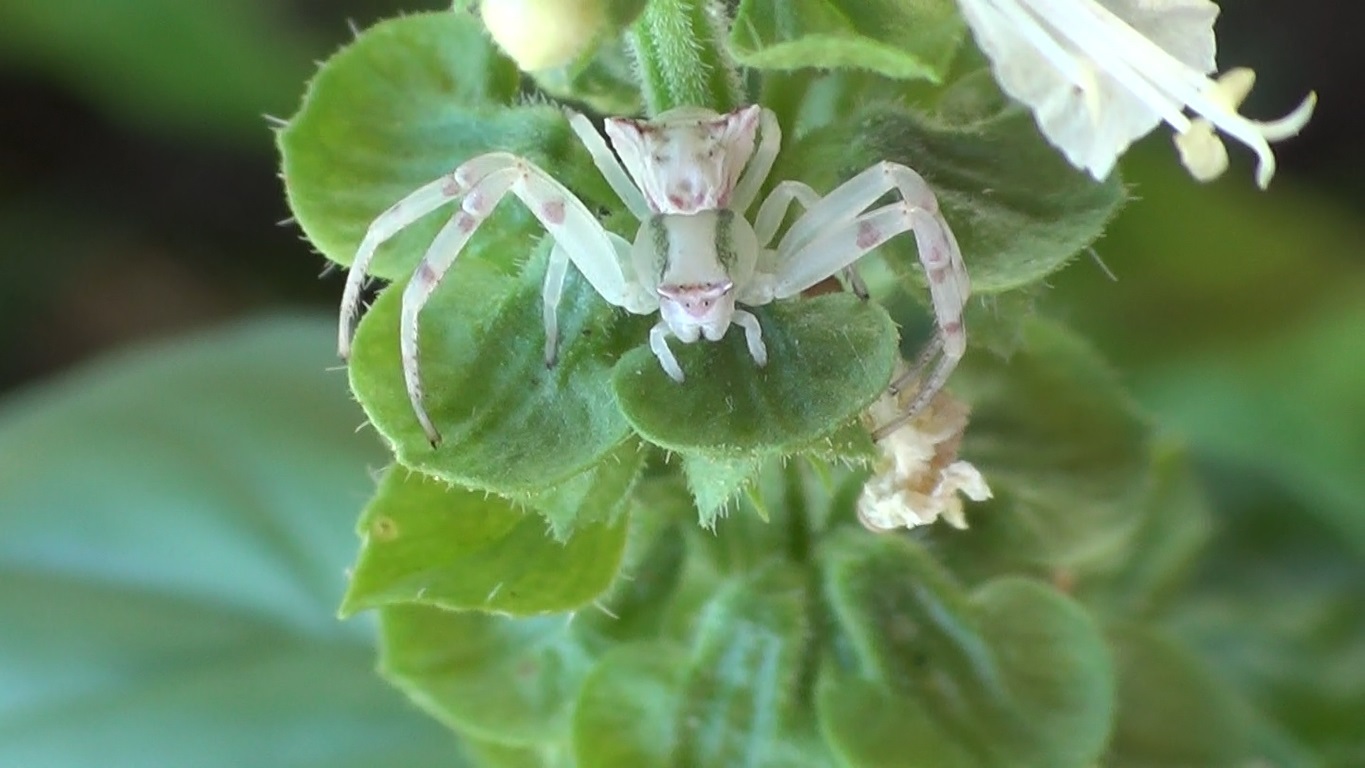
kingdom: Animalia
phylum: Arthropoda
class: Arachnida
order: Araneae
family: Thomisidae
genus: Thomisus
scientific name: Thomisus onustus
